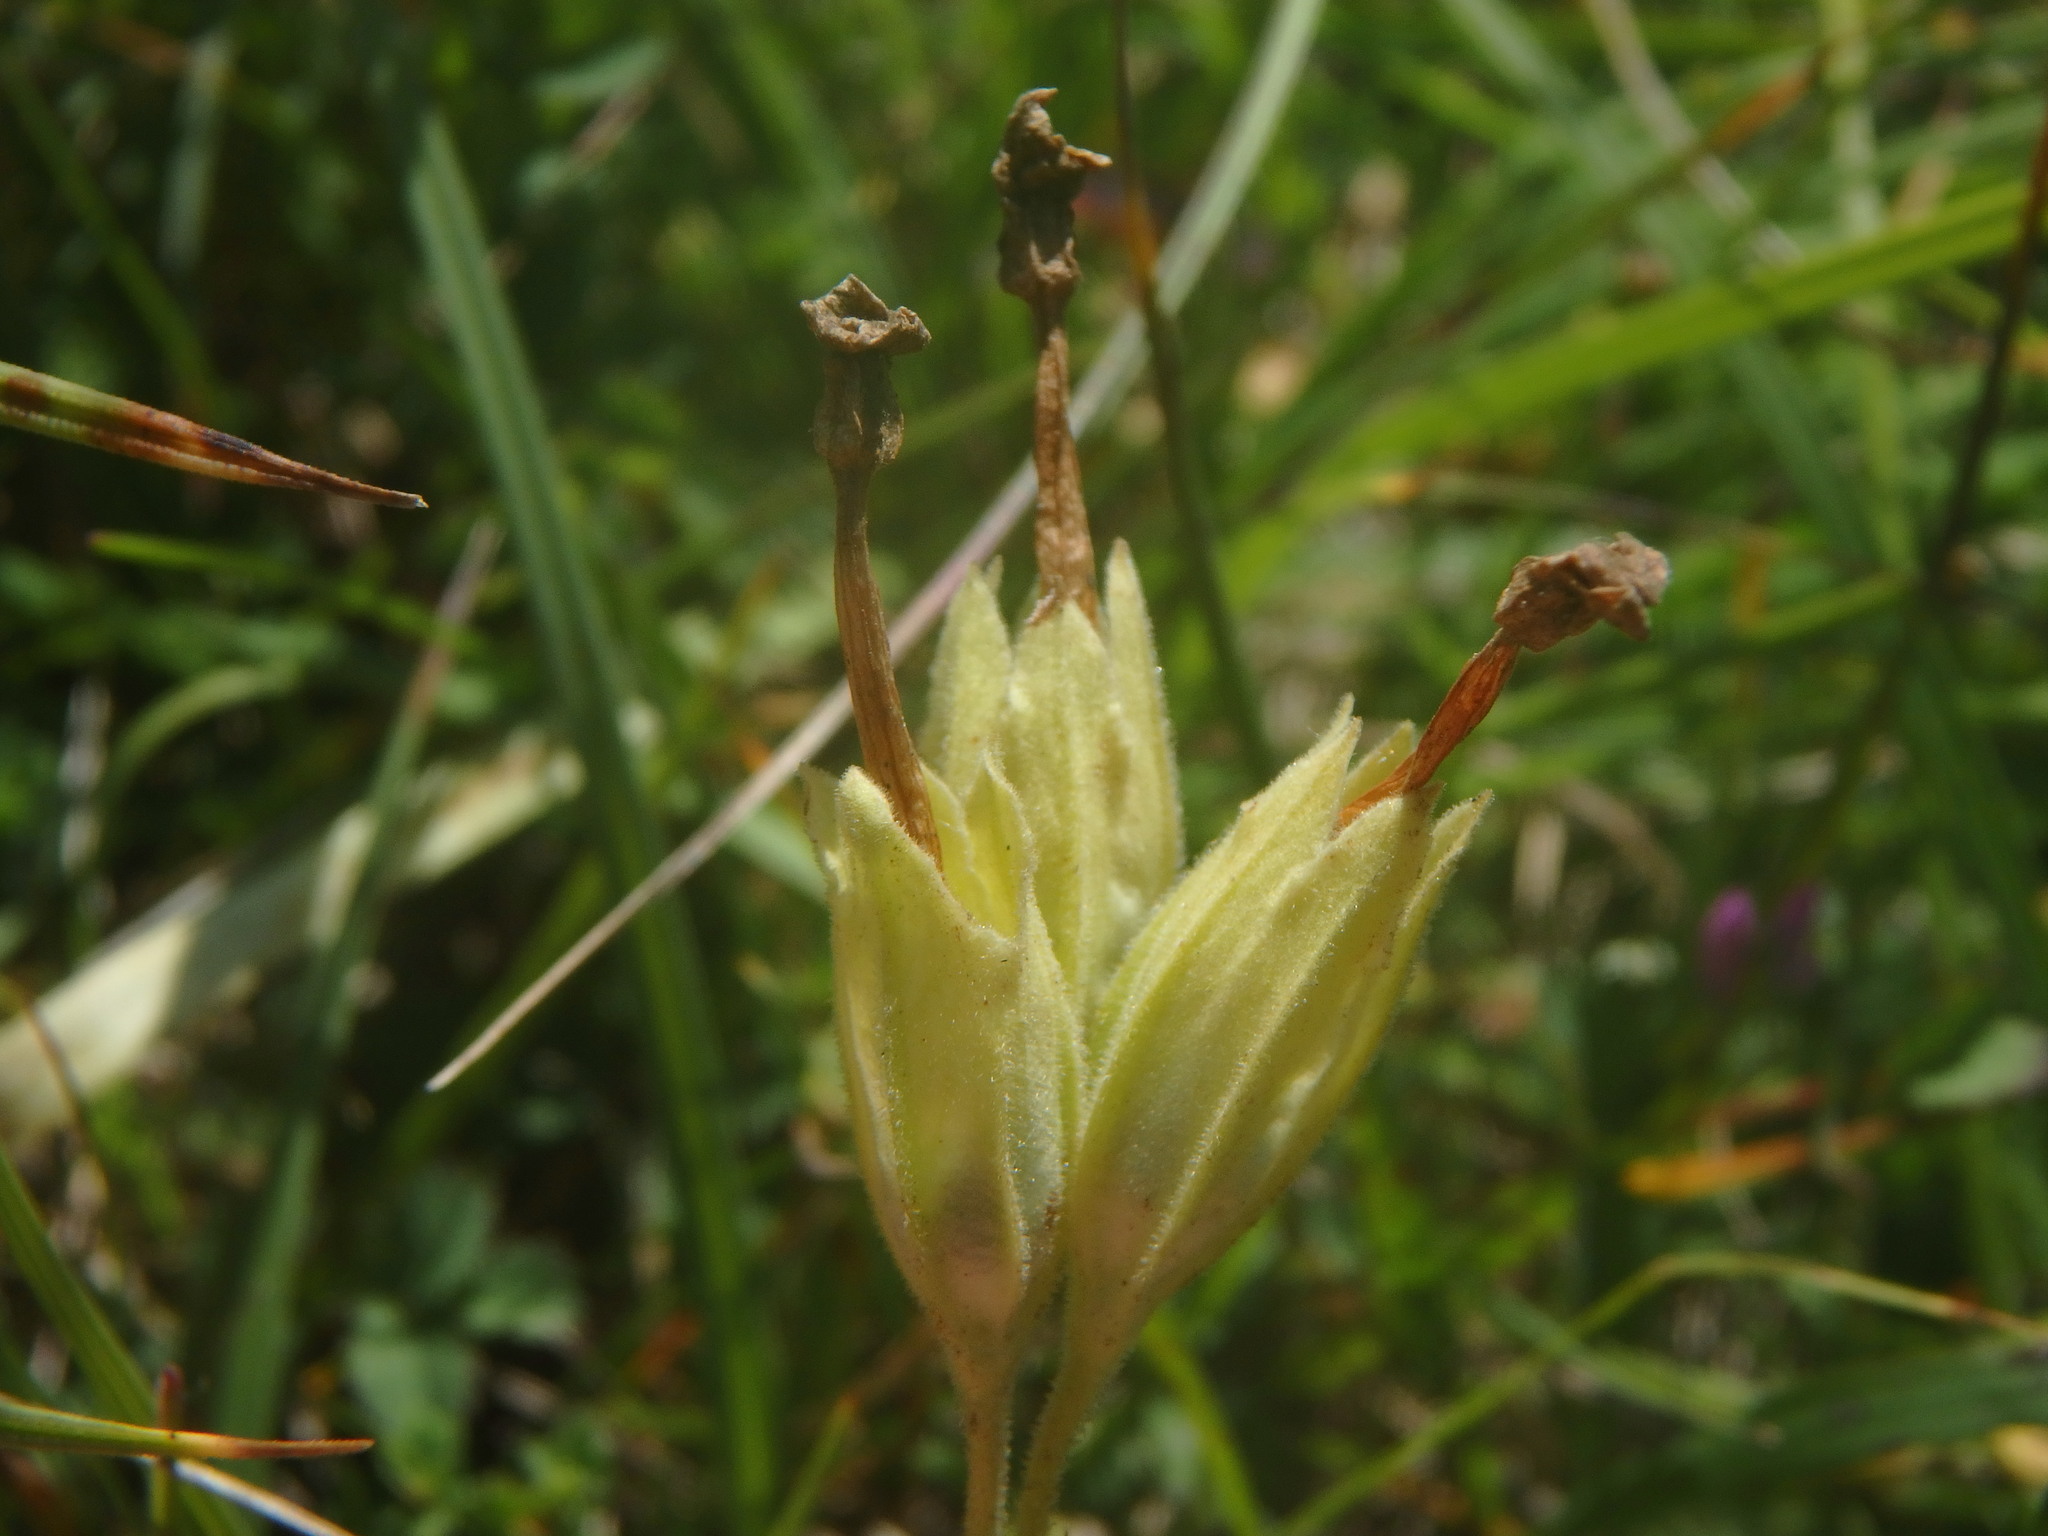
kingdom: Plantae
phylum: Tracheophyta
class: Magnoliopsida
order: Ericales
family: Primulaceae
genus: Primula
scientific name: Primula veris
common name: Cowslip
